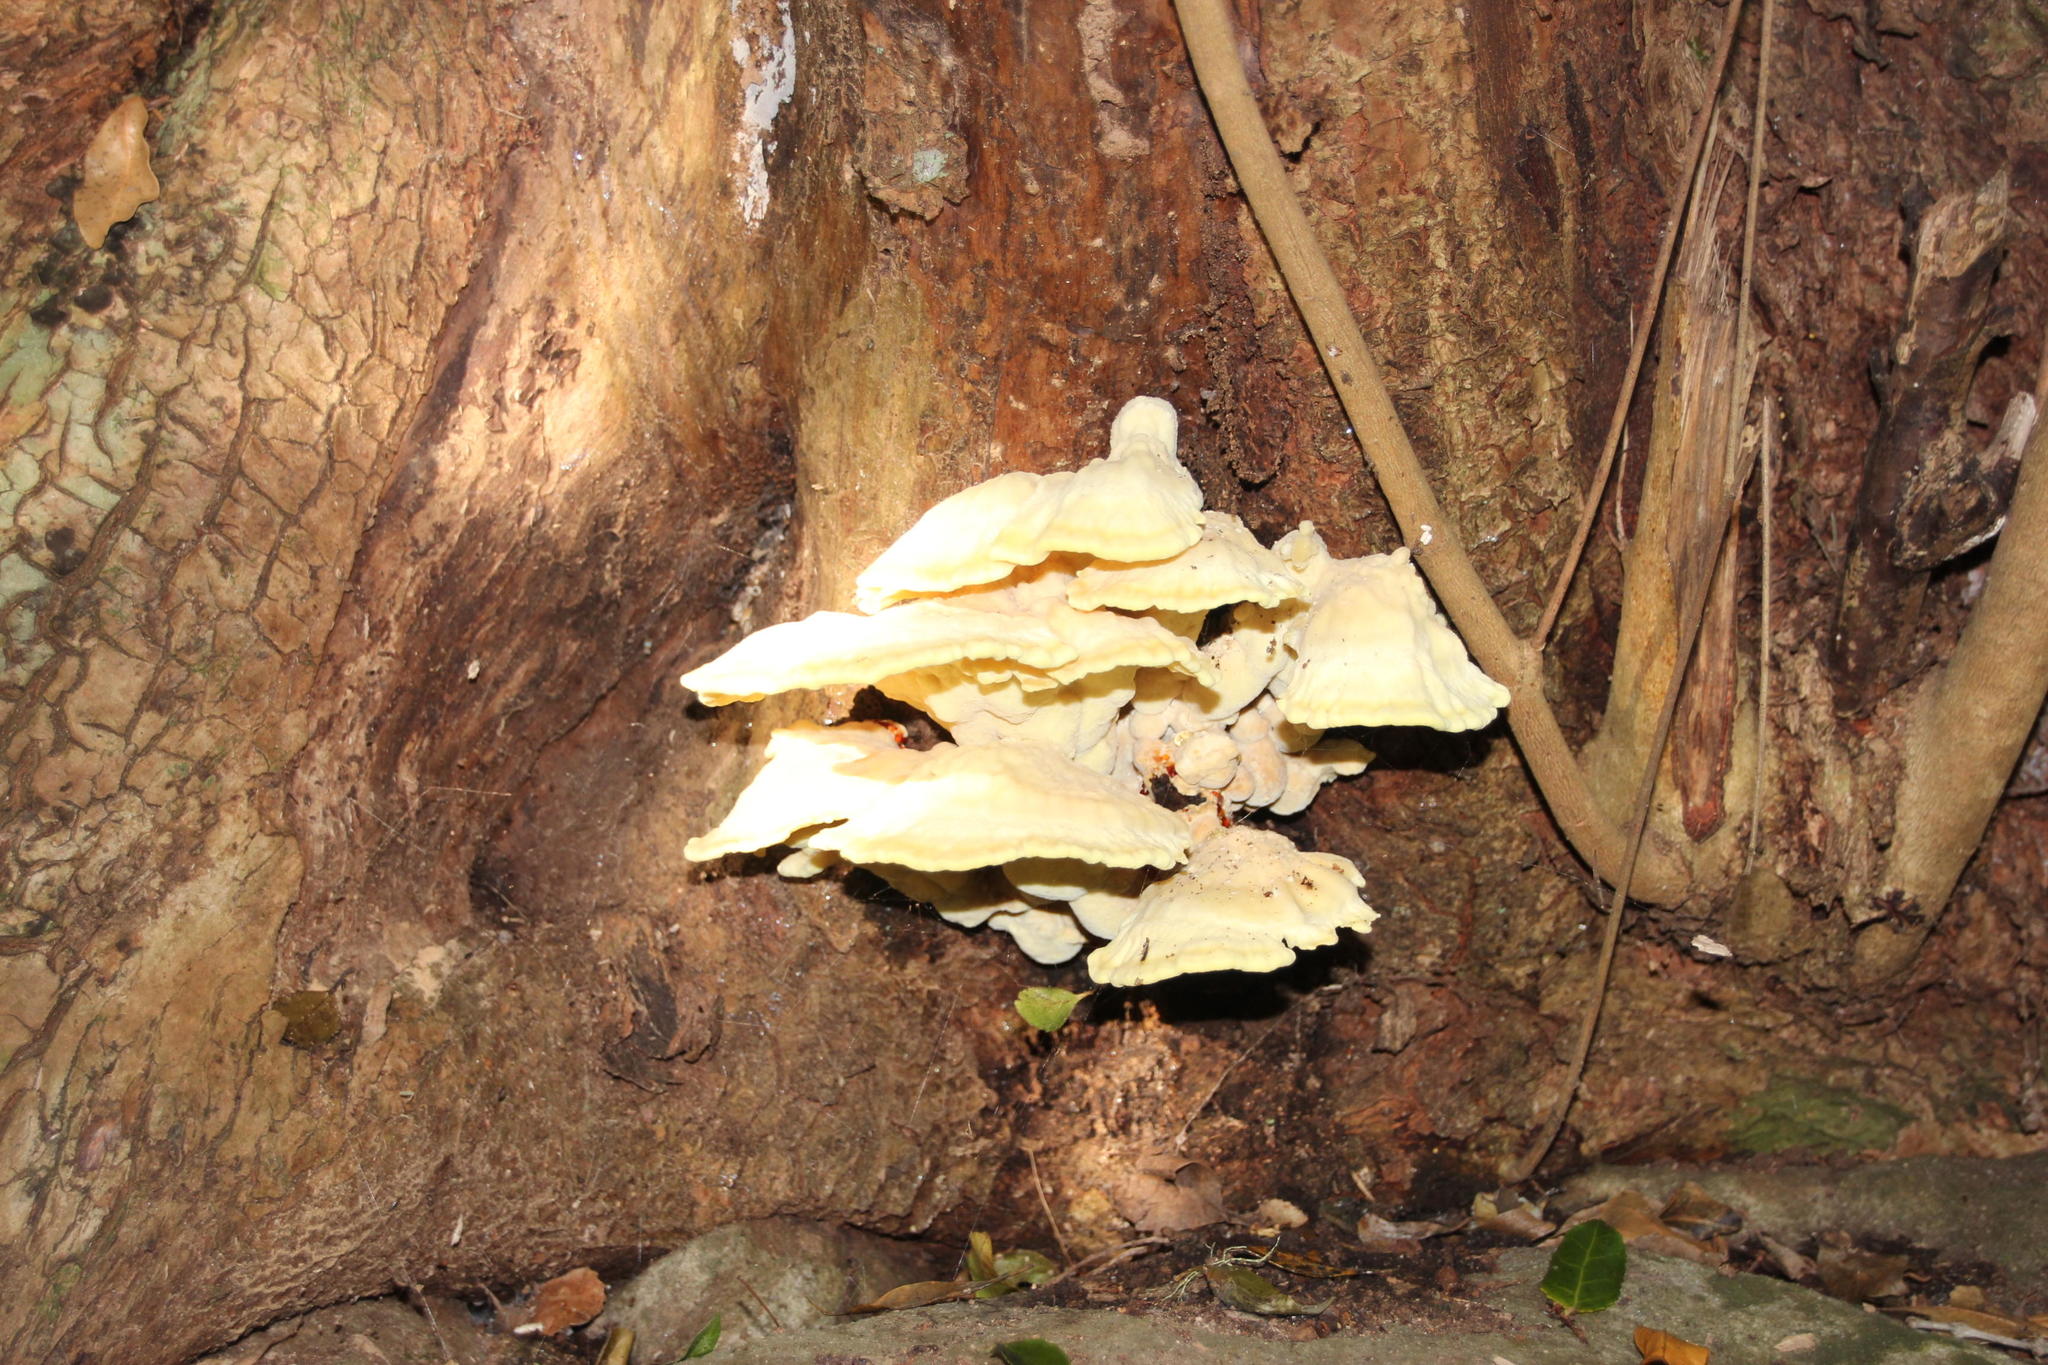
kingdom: Fungi
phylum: Basidiomycota
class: Agaricomycetes
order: Polyporales
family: Laetiporaceae
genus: Laetiporus
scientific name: Laetiporus sulphureus
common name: Chicken of the woods
